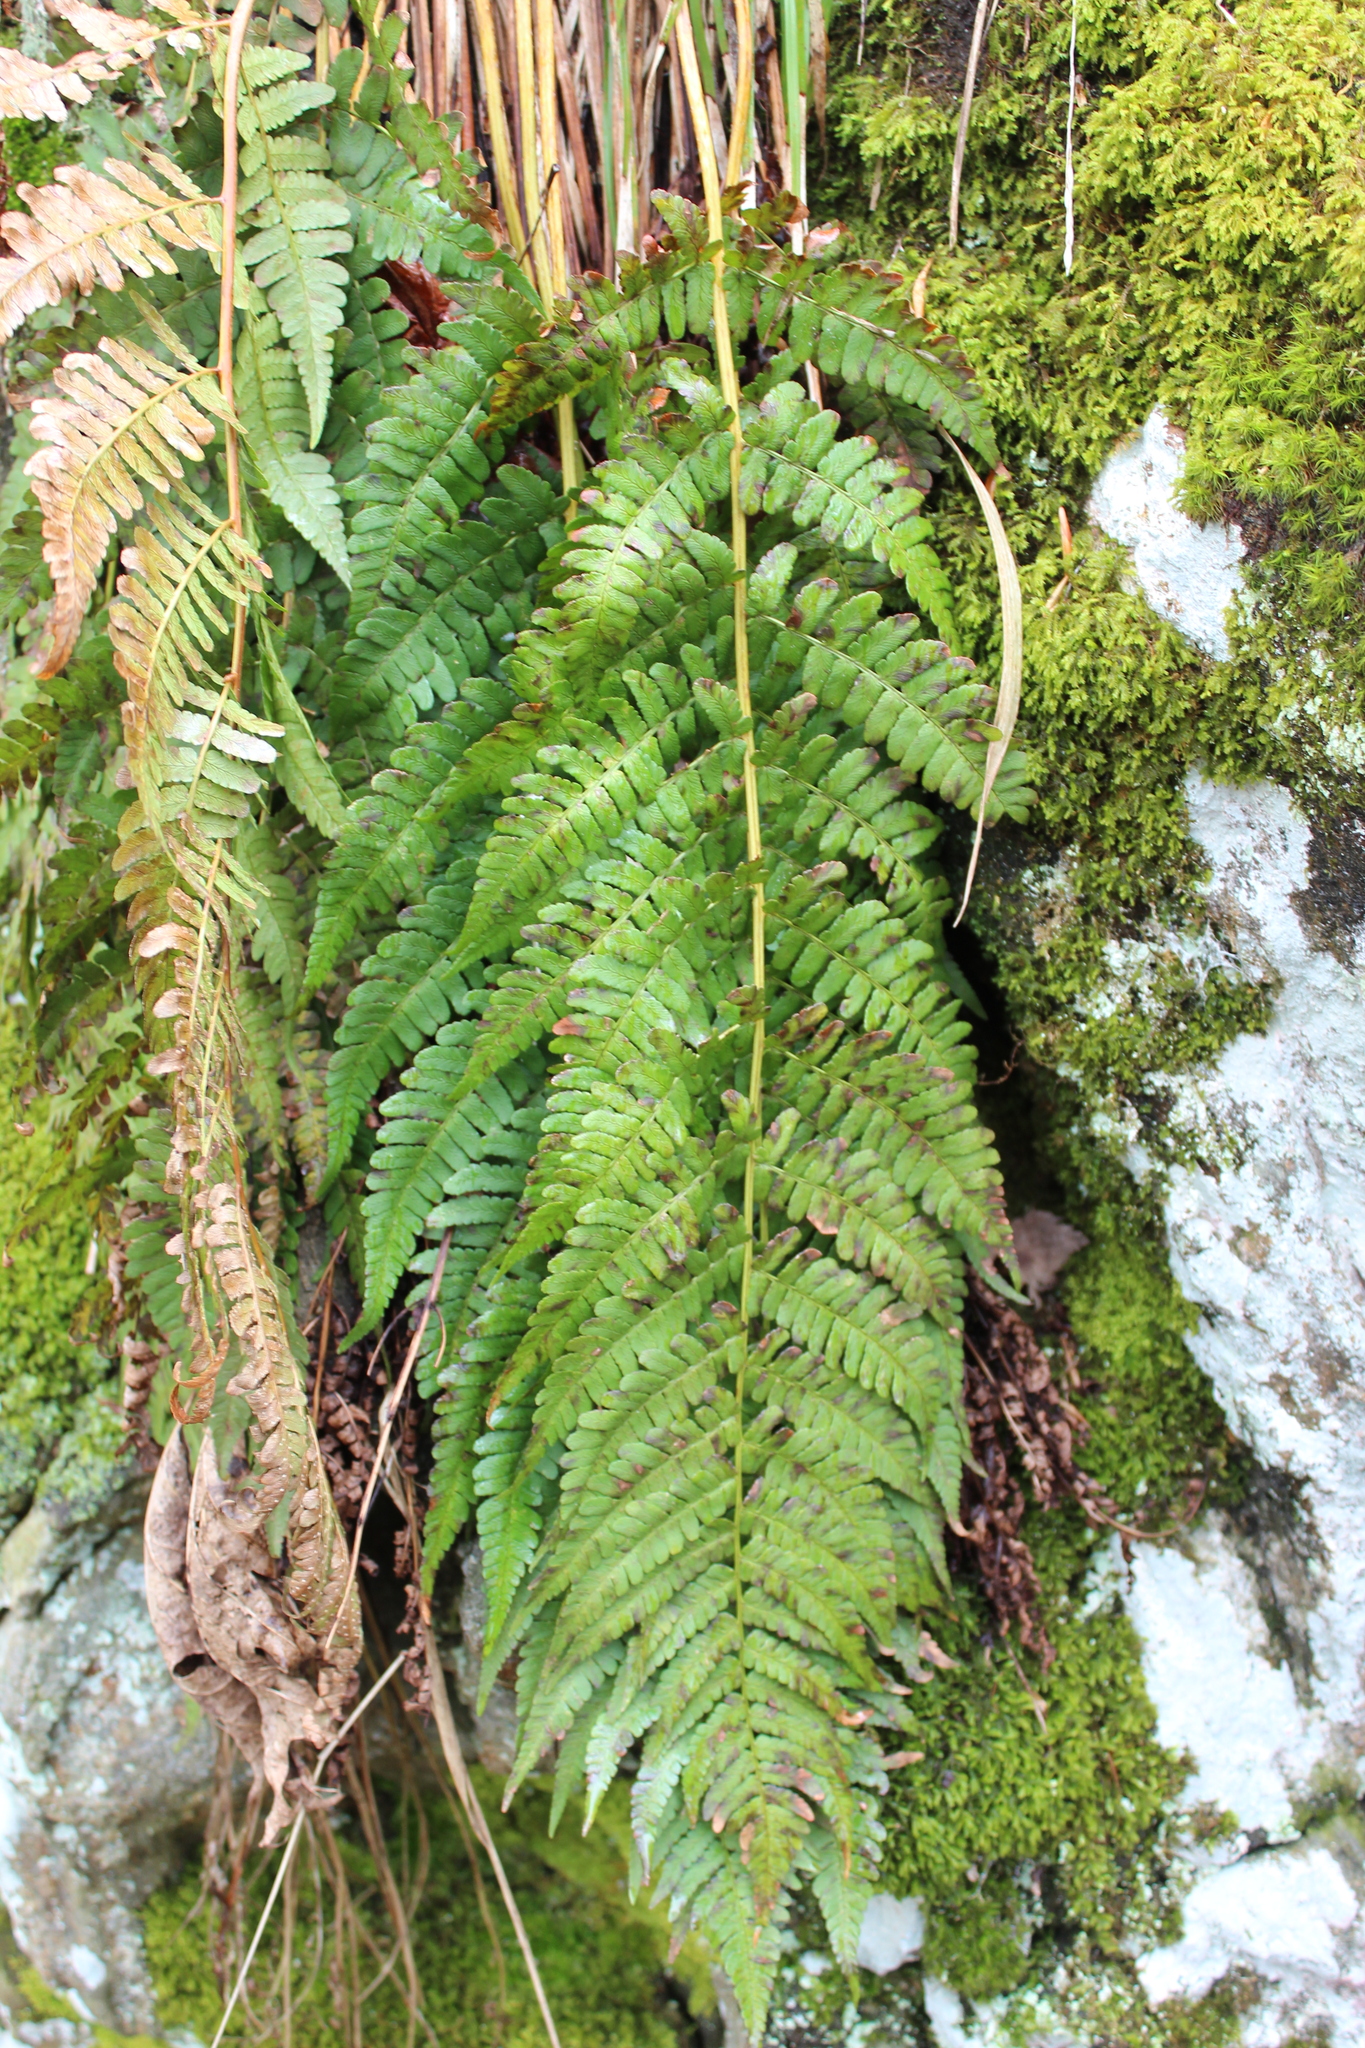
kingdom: Plantae
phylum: Tracheophyta
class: Polypodiopsida
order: Polypodiales
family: Dryopteridaceae
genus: Dryopteris
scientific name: Dryopteris marginalis
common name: Marginal wood fern
